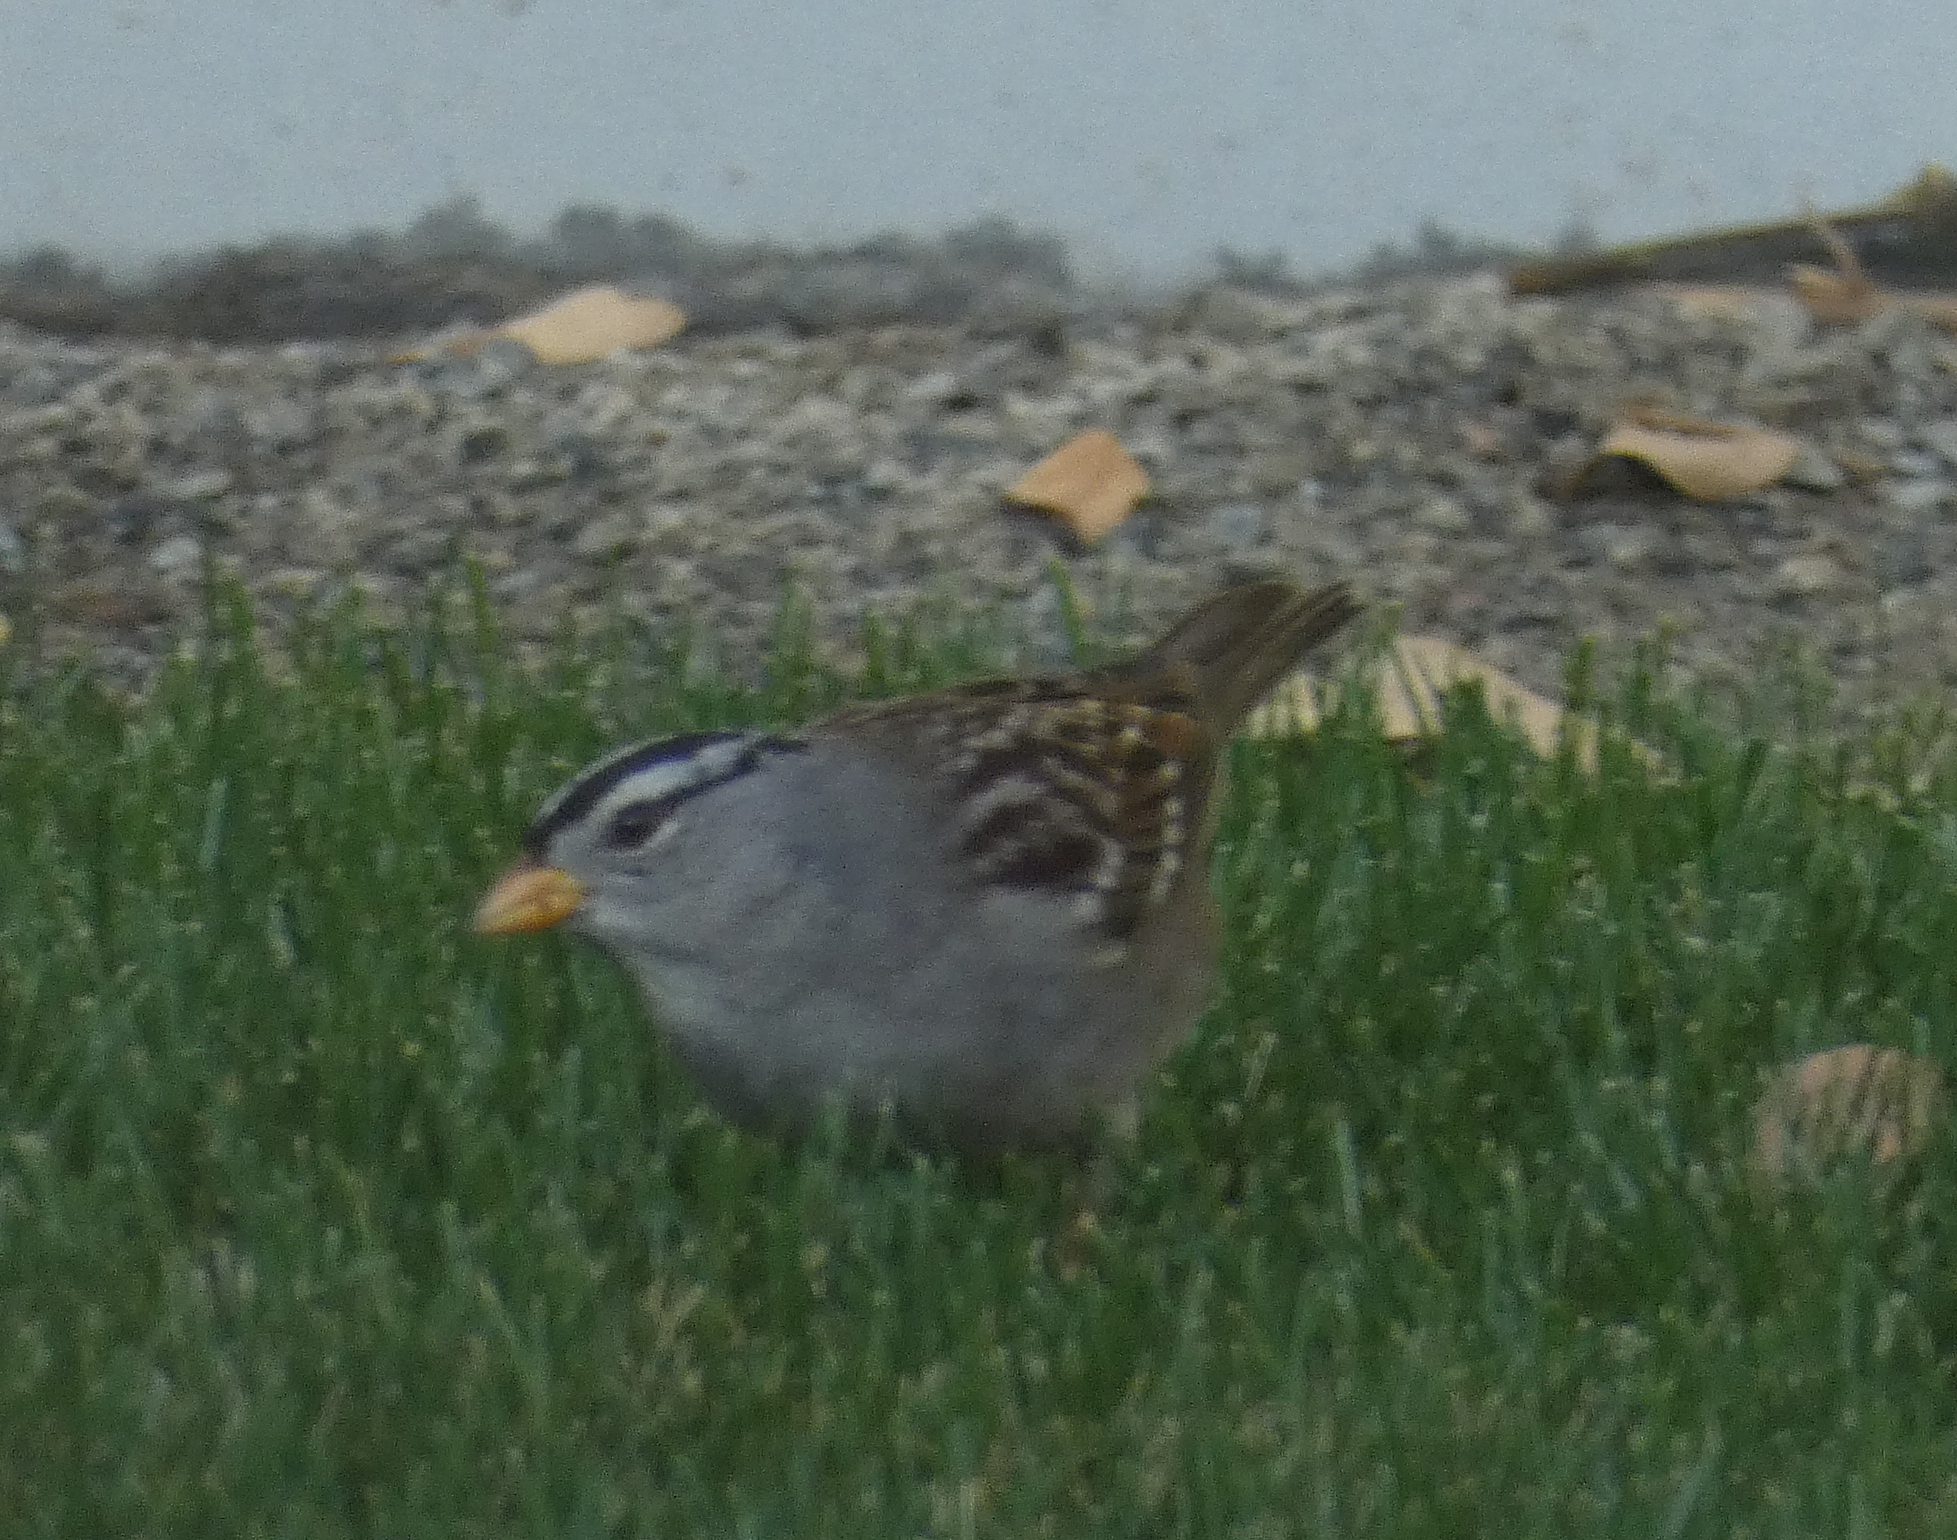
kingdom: Animalia
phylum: Chordata
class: Aves
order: Passeriformes
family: Passerellidae
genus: Zonotrichia
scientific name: Zonotrichia leucophrys
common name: White-crowned sparrow
